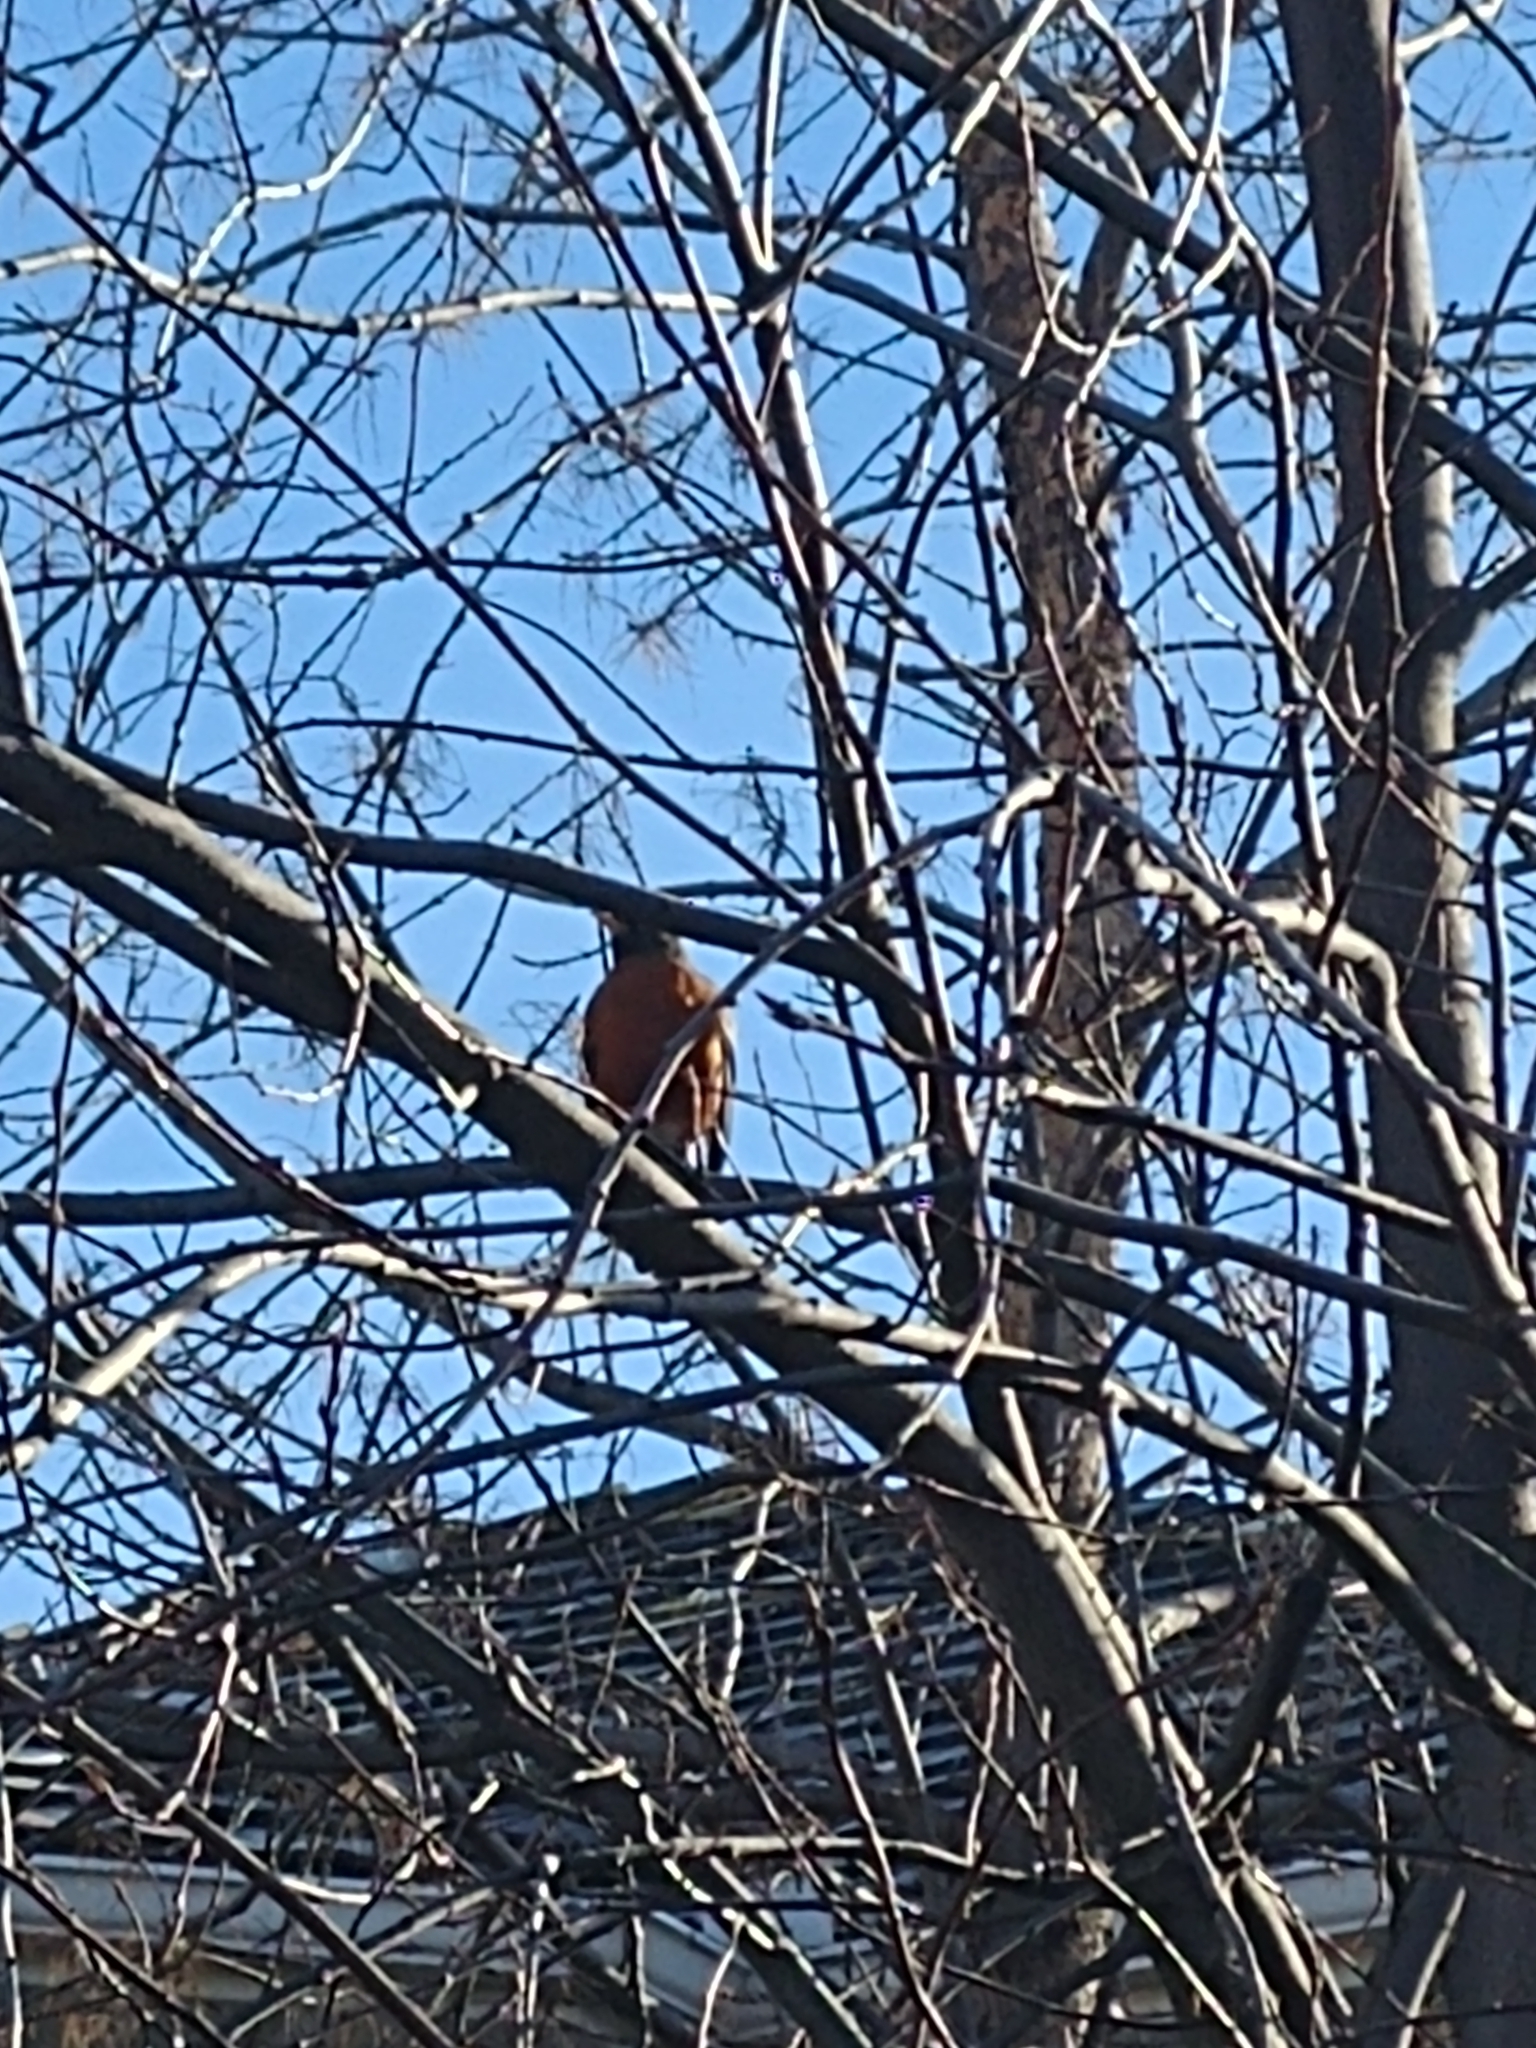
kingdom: Animalia
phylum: Chordata
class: Aves
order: Passeriformes
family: Turdidae
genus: Turdus
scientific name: Turdus migratorius
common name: American robin
